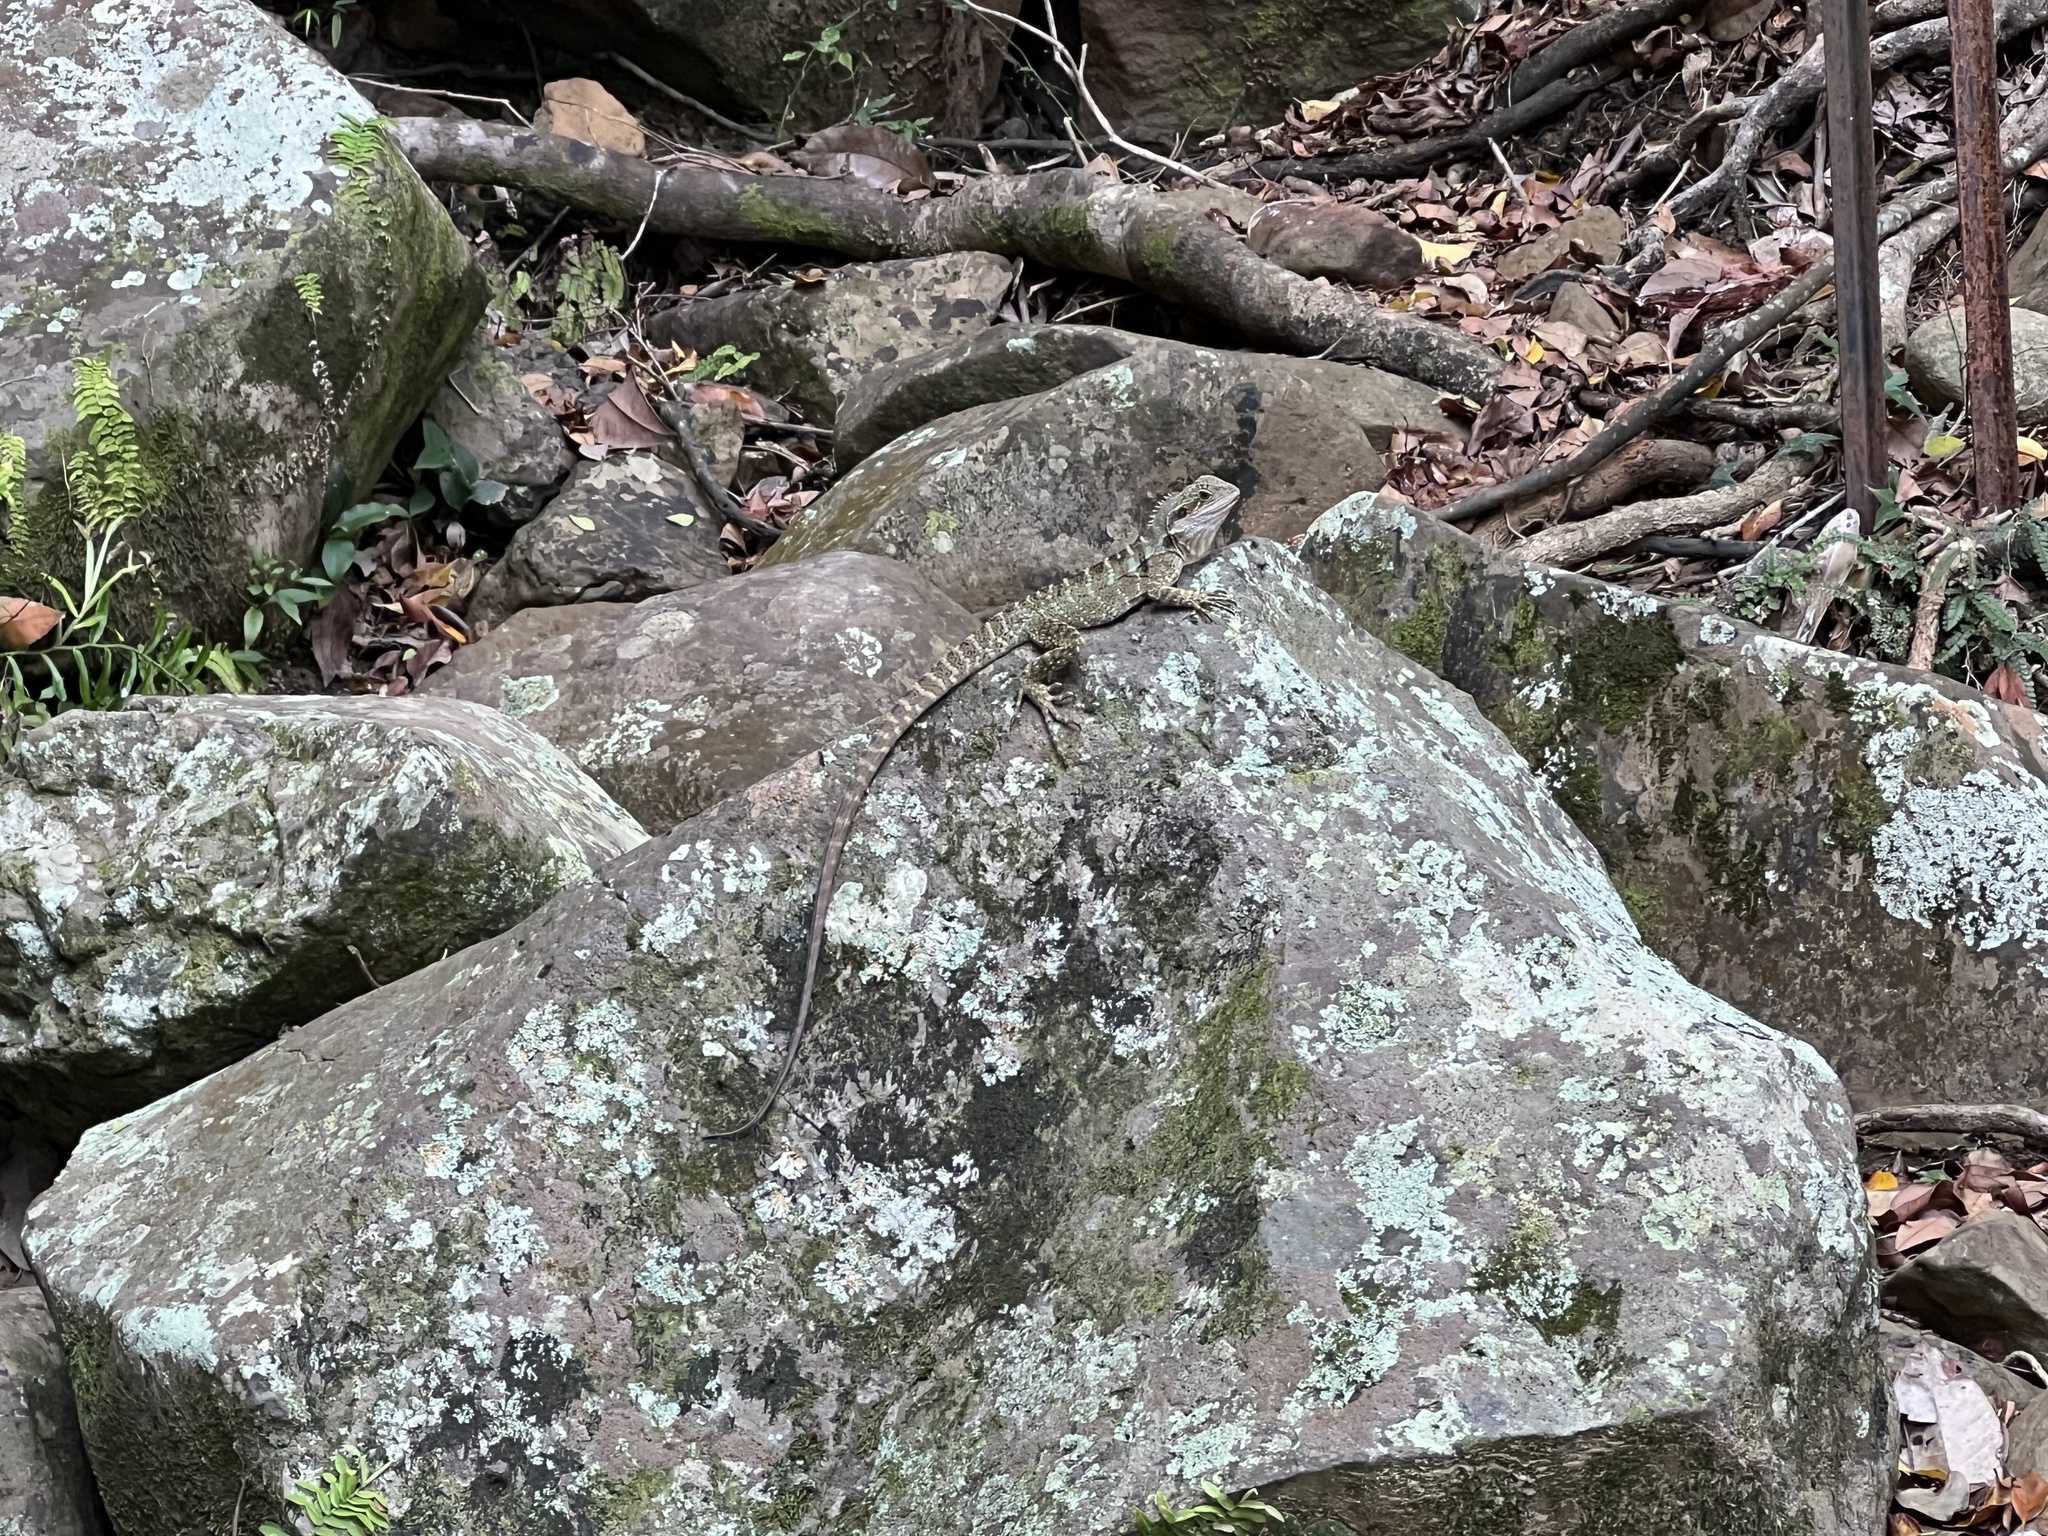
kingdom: Animalia
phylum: Chordata
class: Squamata
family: Agamidae
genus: Intellagama
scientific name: Intellagama lesueurii
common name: Eastern water dragon
